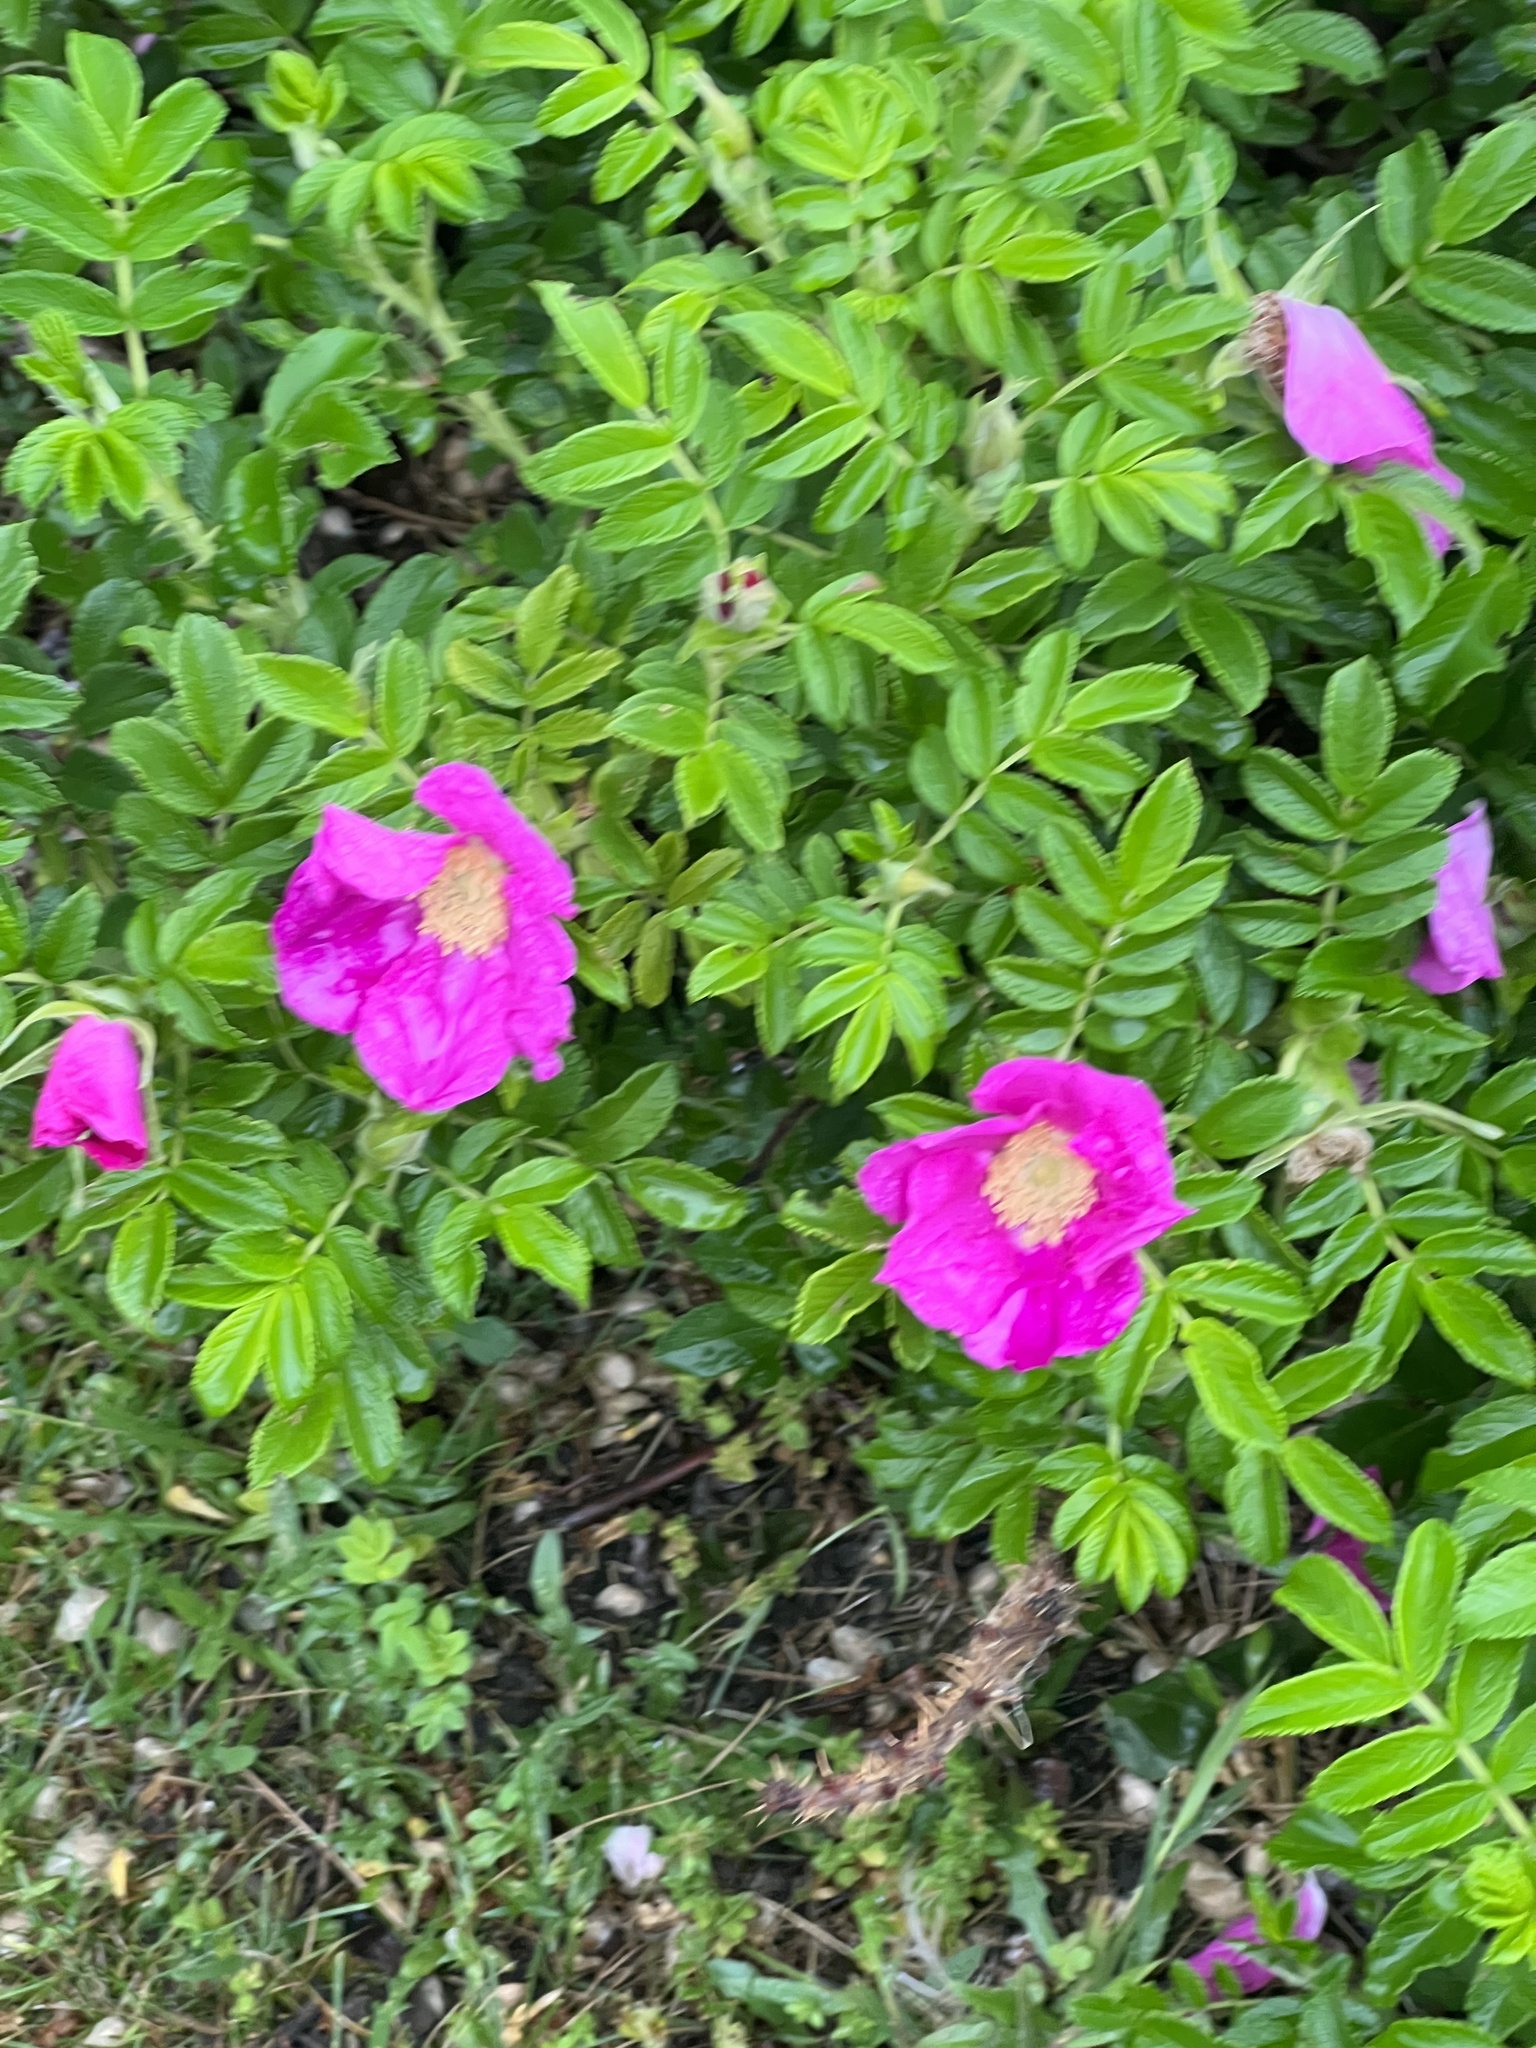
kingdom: Plantae
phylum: Tracheophyta
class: Magnoliopsida
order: Rosales
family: Rosaceae
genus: Rosa
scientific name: Rosa rugosa
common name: Japanese rose
